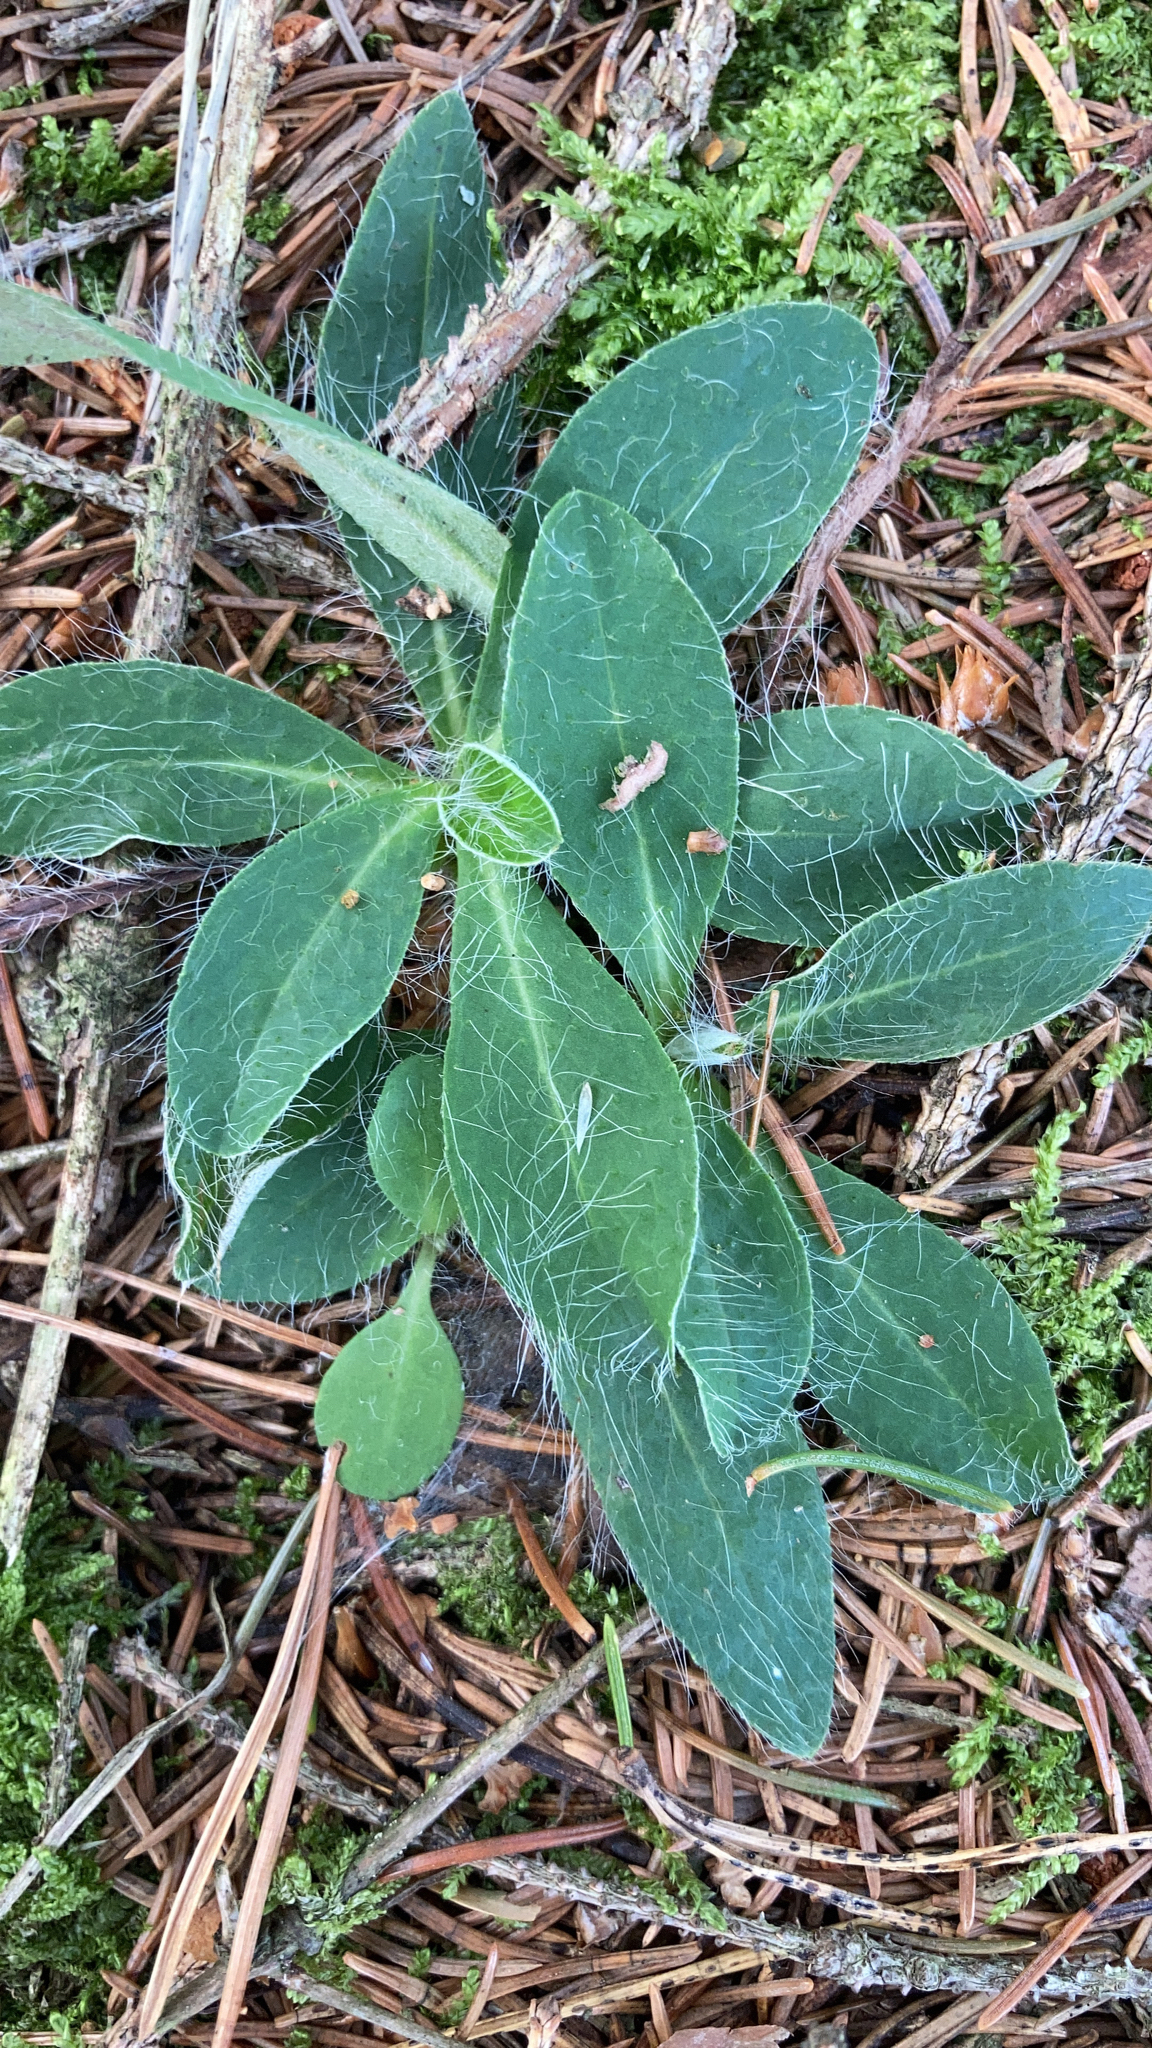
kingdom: Plantae
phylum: Tracheophyta
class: Magnoliopsida
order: Asterales
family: Asteraceae
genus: Pilosella
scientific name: Pilosella officinarum
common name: Mouse-ear hawkweed
